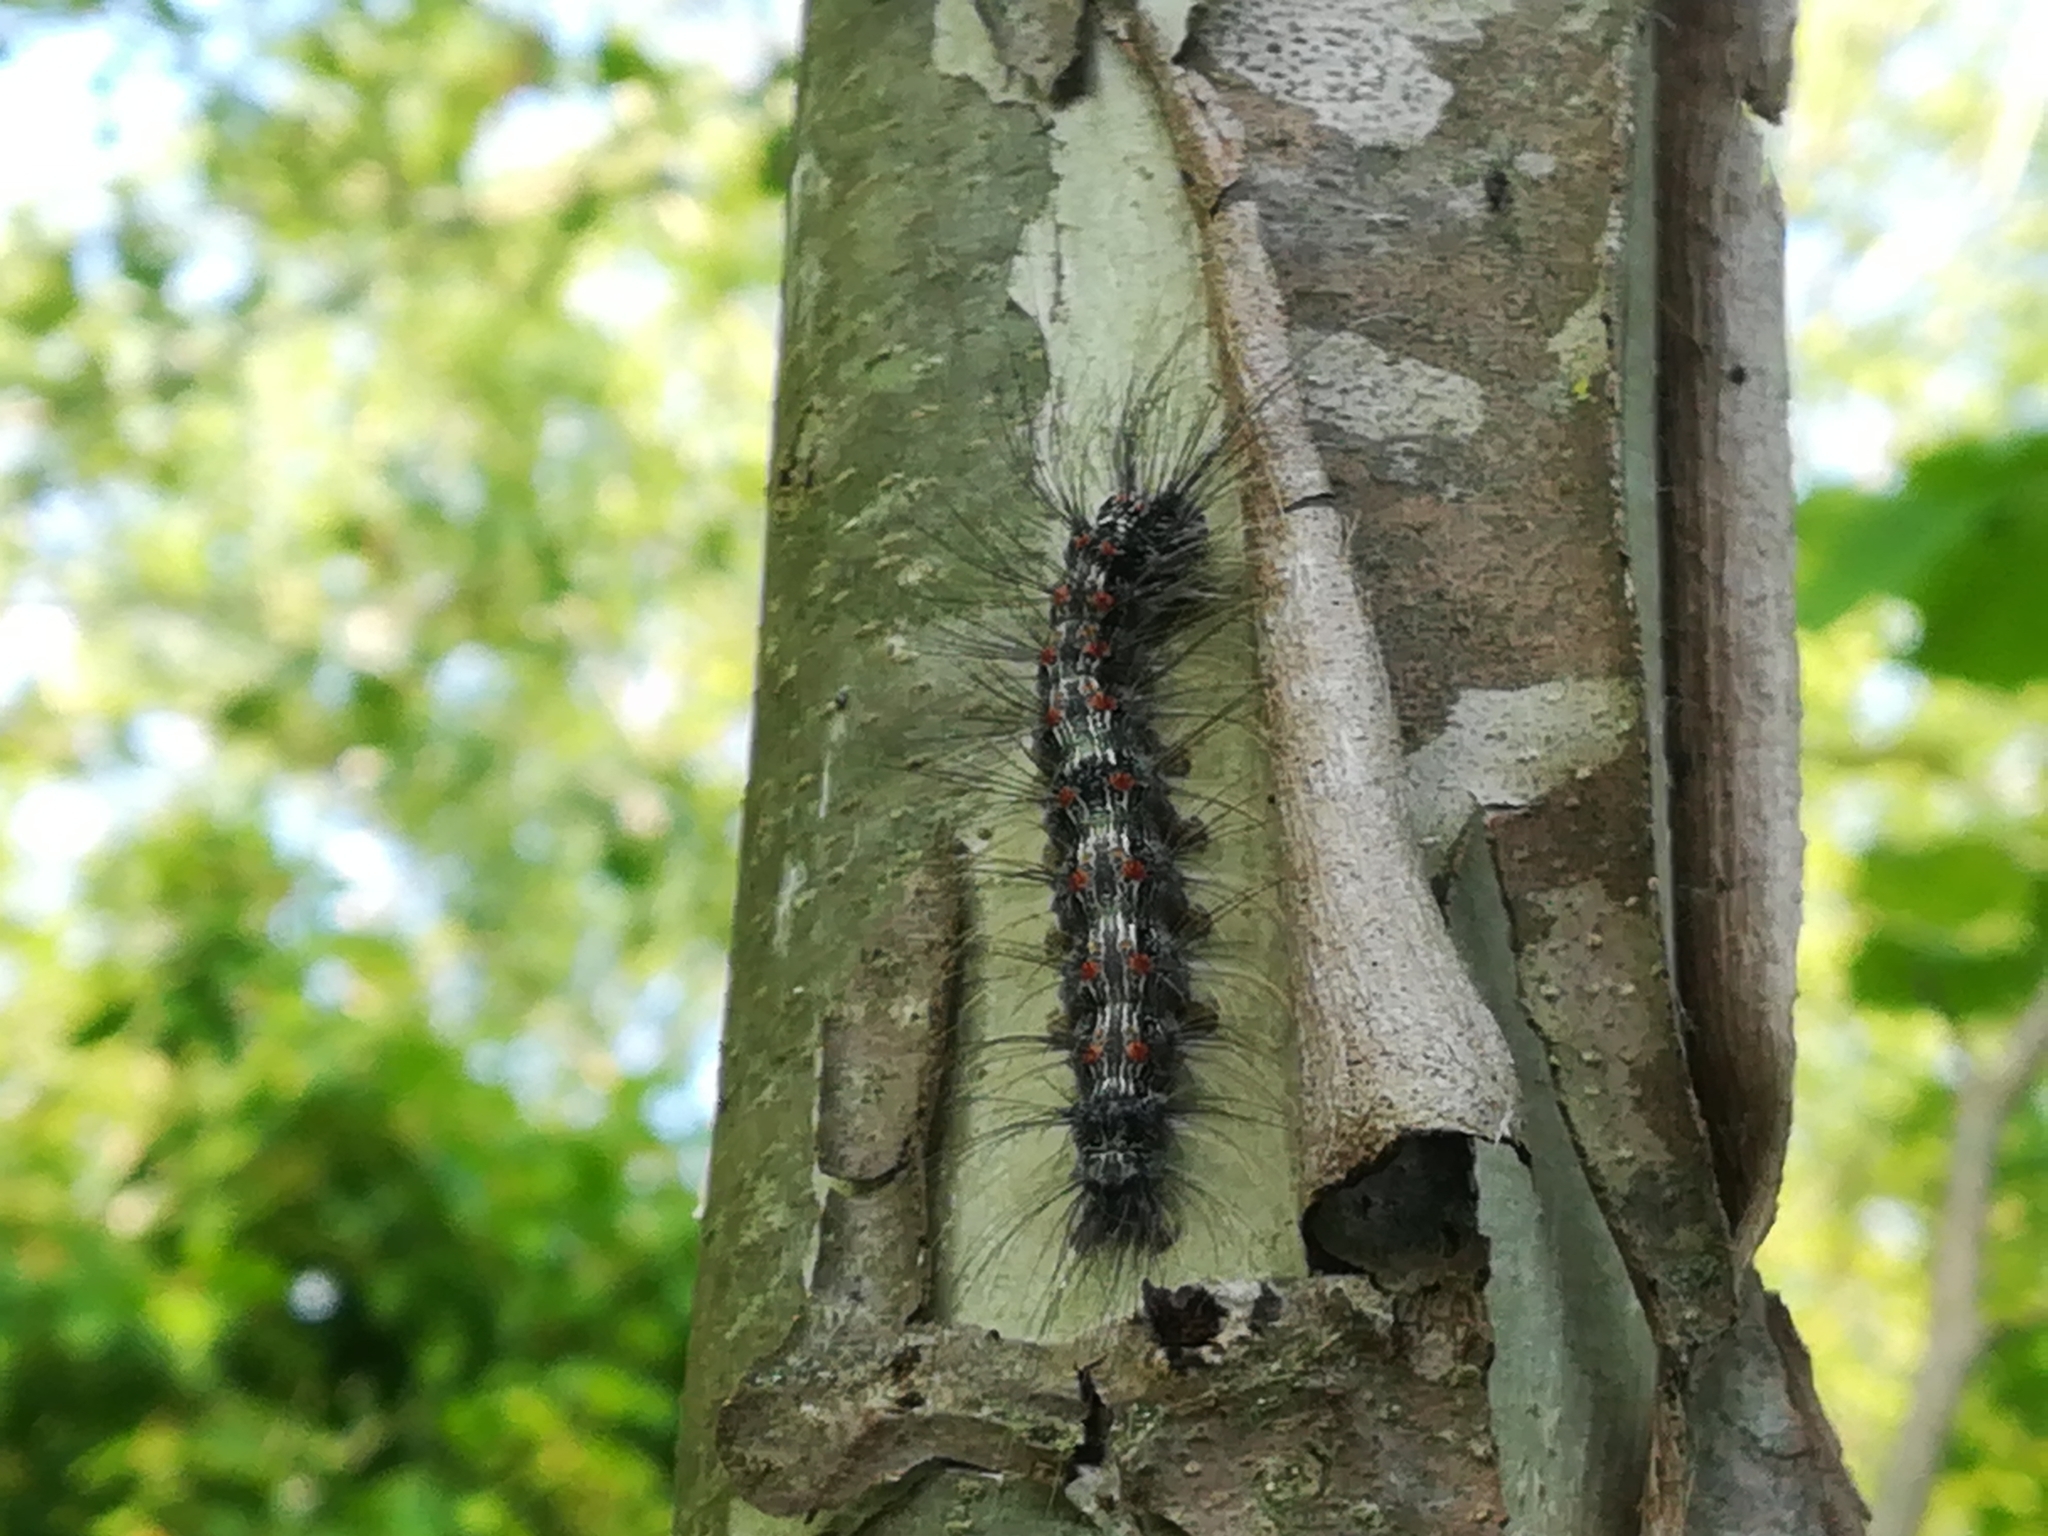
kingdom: Animalia
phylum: Arthropoda
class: Insecta
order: Lepidoptera
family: Erebidae
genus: Lithosia
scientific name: Lithosia quadra
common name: Four-spotted footman
